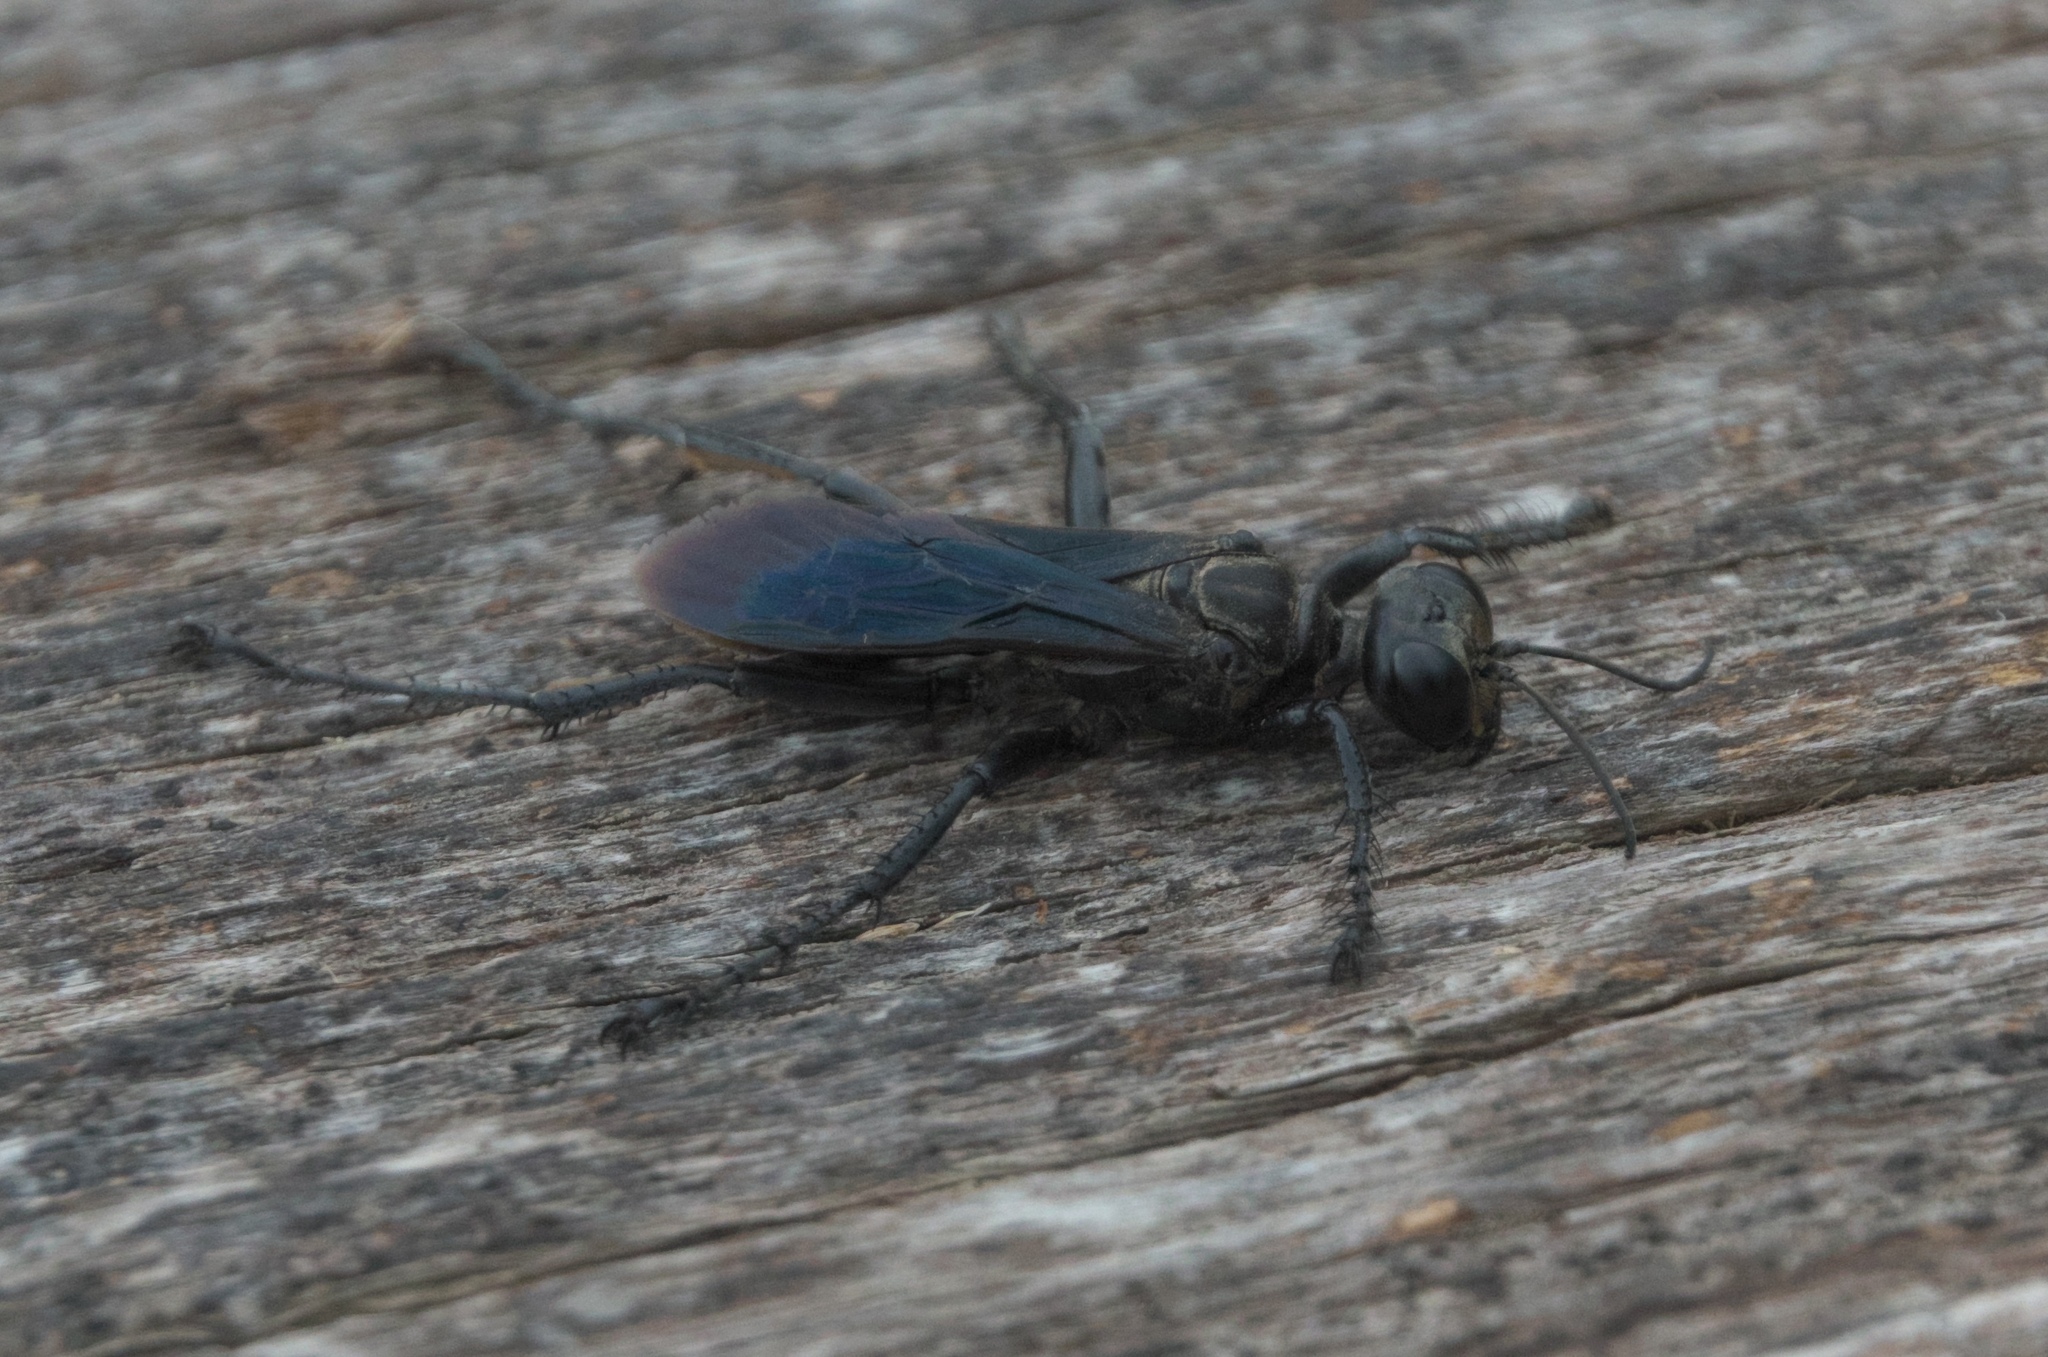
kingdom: Animalia
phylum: Arthropoda
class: Insecta
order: Hymenoptera
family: Sphecidae
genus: Prionyx
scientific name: Prionyx atratus
